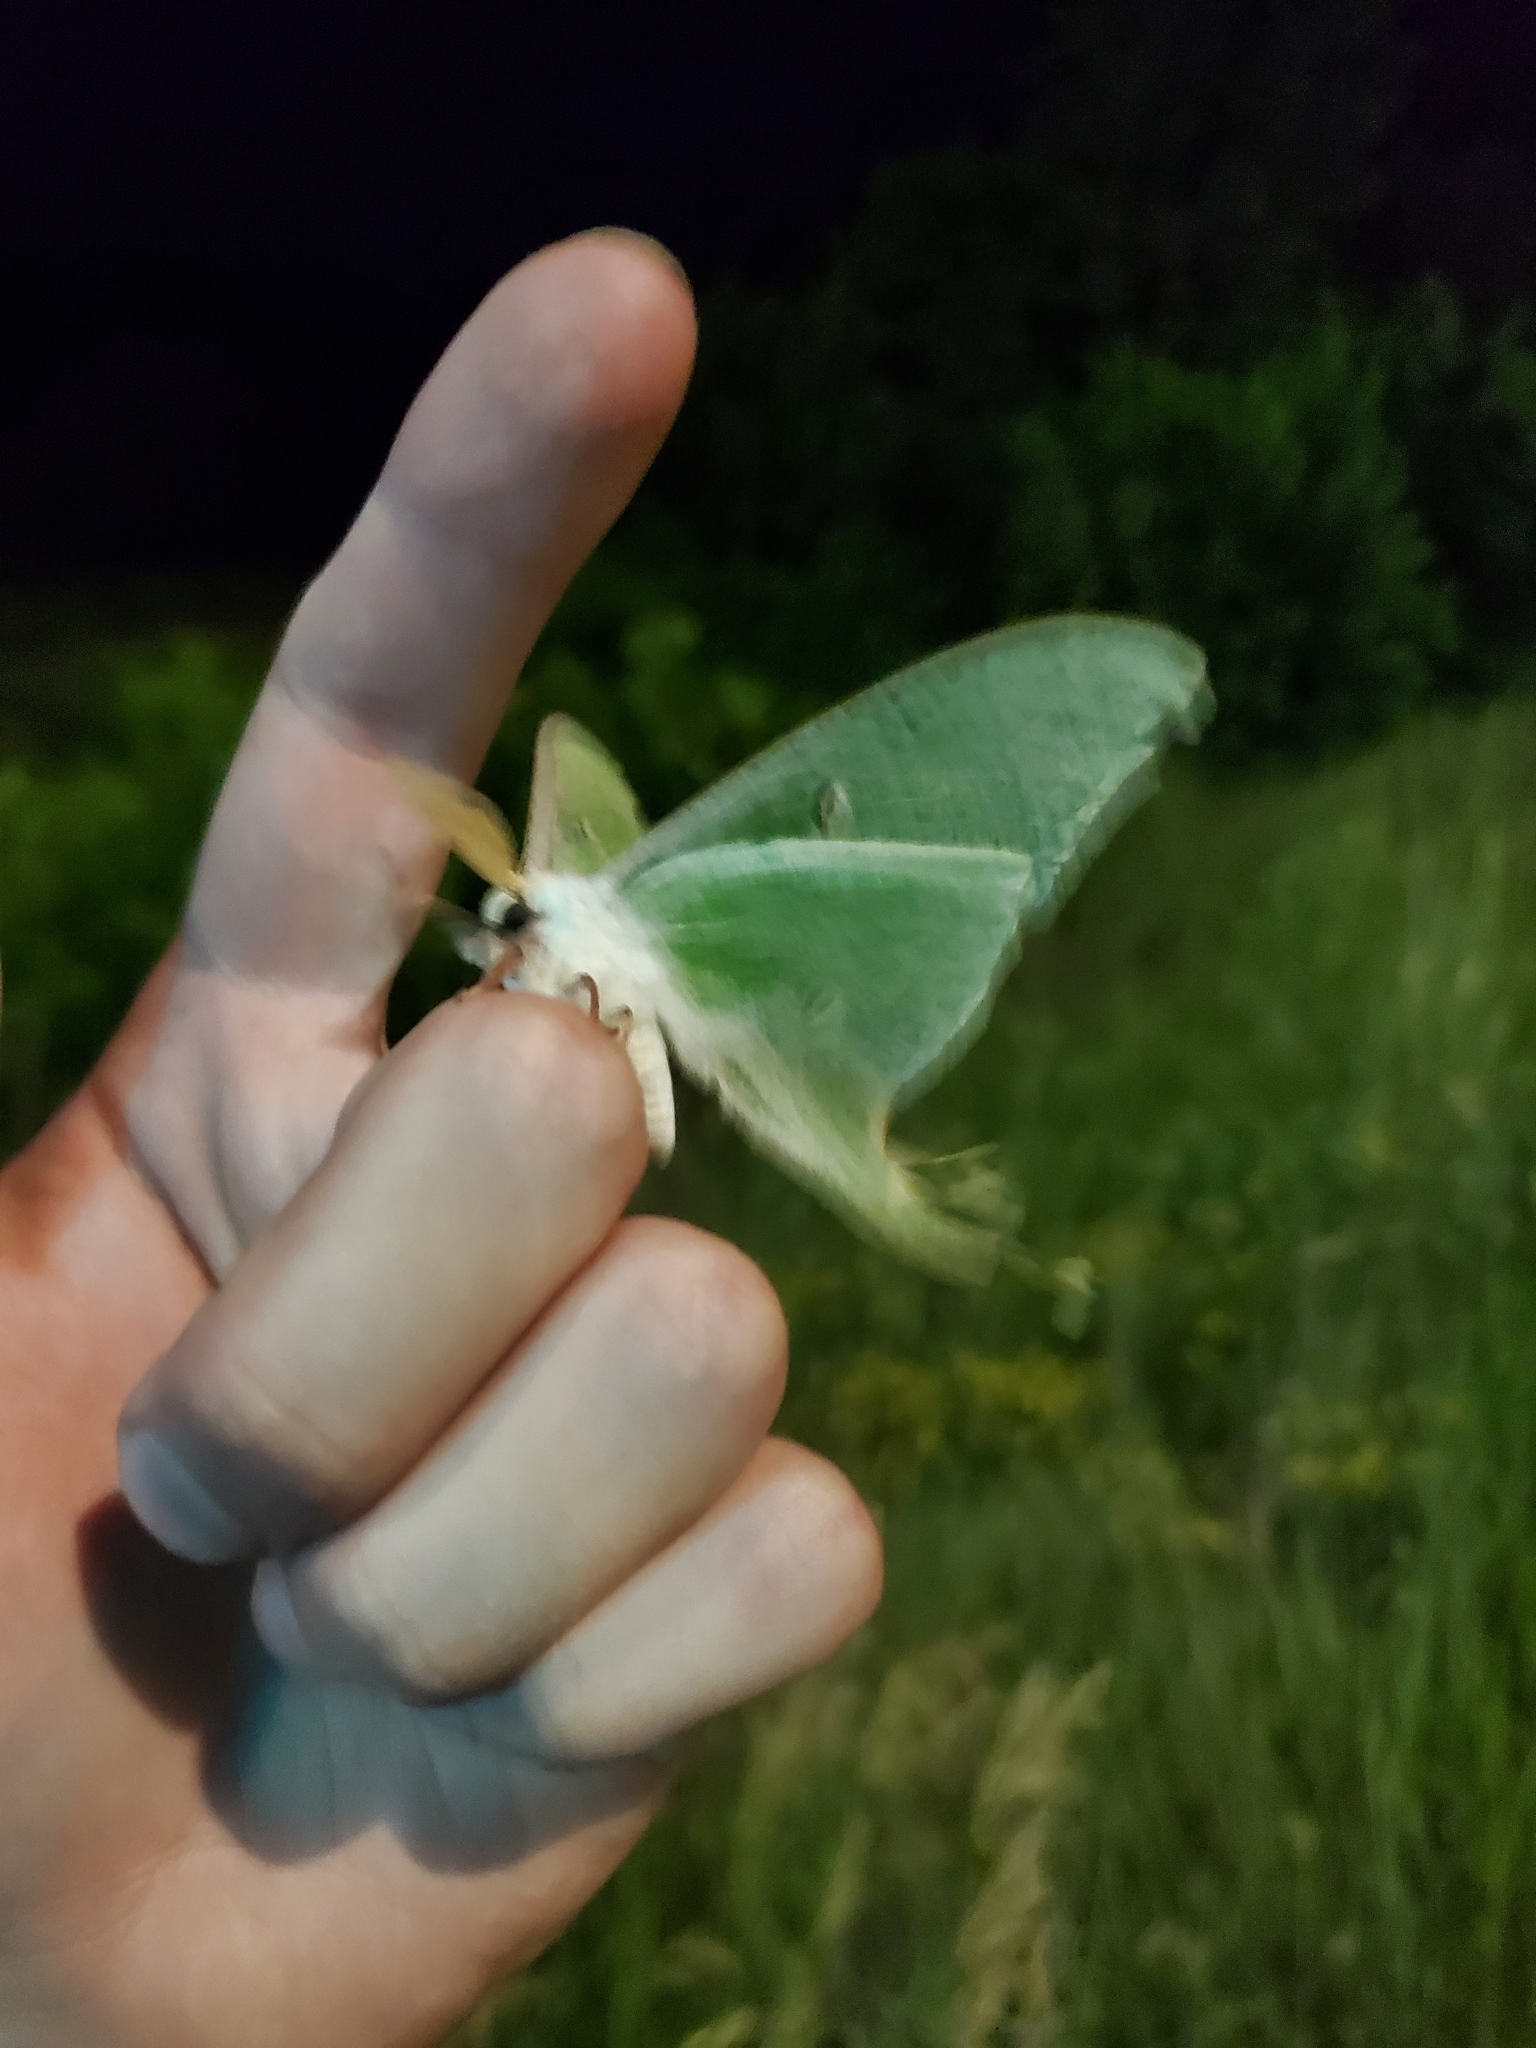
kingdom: Animalia
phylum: Arthropoda
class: Insecta
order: Lepidoptera
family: Saturniidae
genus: Actias
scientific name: Actias luna
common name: Luna moth
